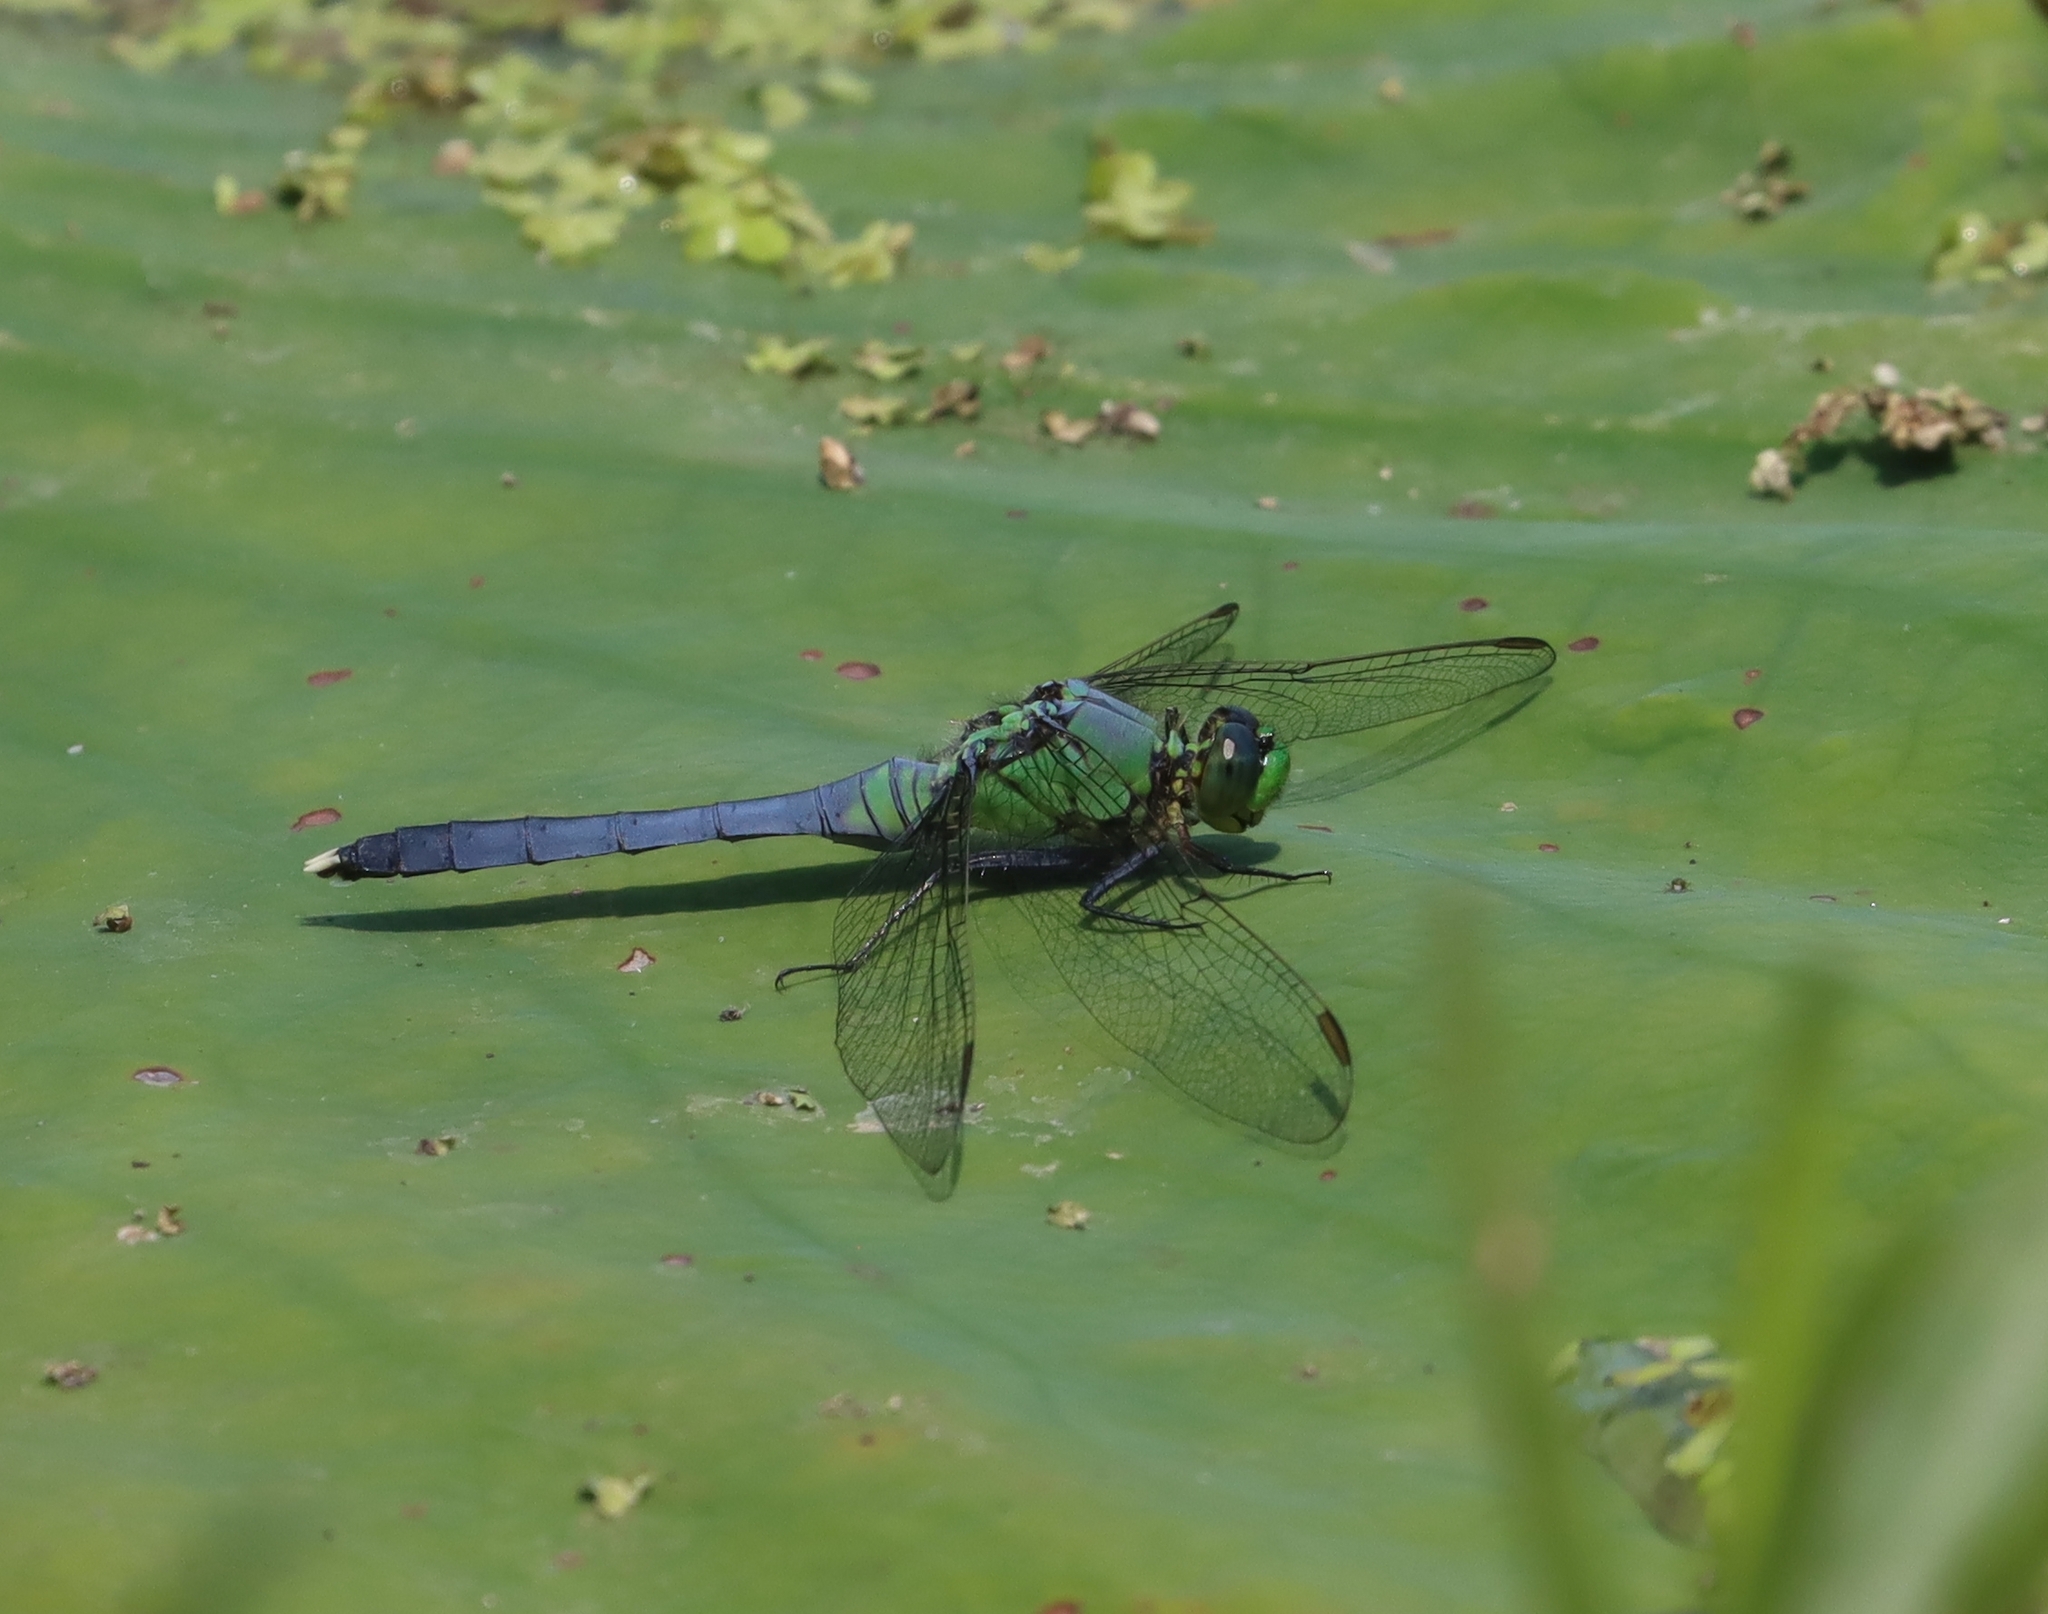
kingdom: Animalia
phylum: Arthropoda
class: Insecta
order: Odonata
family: Libellulidae
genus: Erythemis
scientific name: Erythemis simplicicollis
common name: Eastern pondhawk
